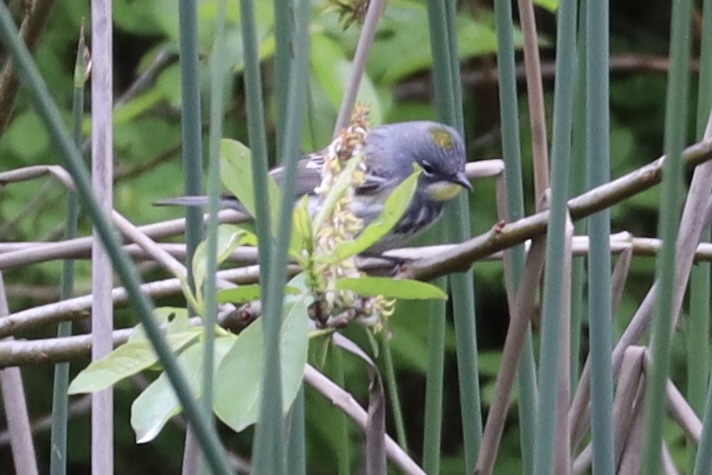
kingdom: Animalia
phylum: Chordata
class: Aves
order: Passeriformes
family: Parulidae
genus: Setophaga
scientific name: Setophaga coronata
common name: Myrtle warbler
